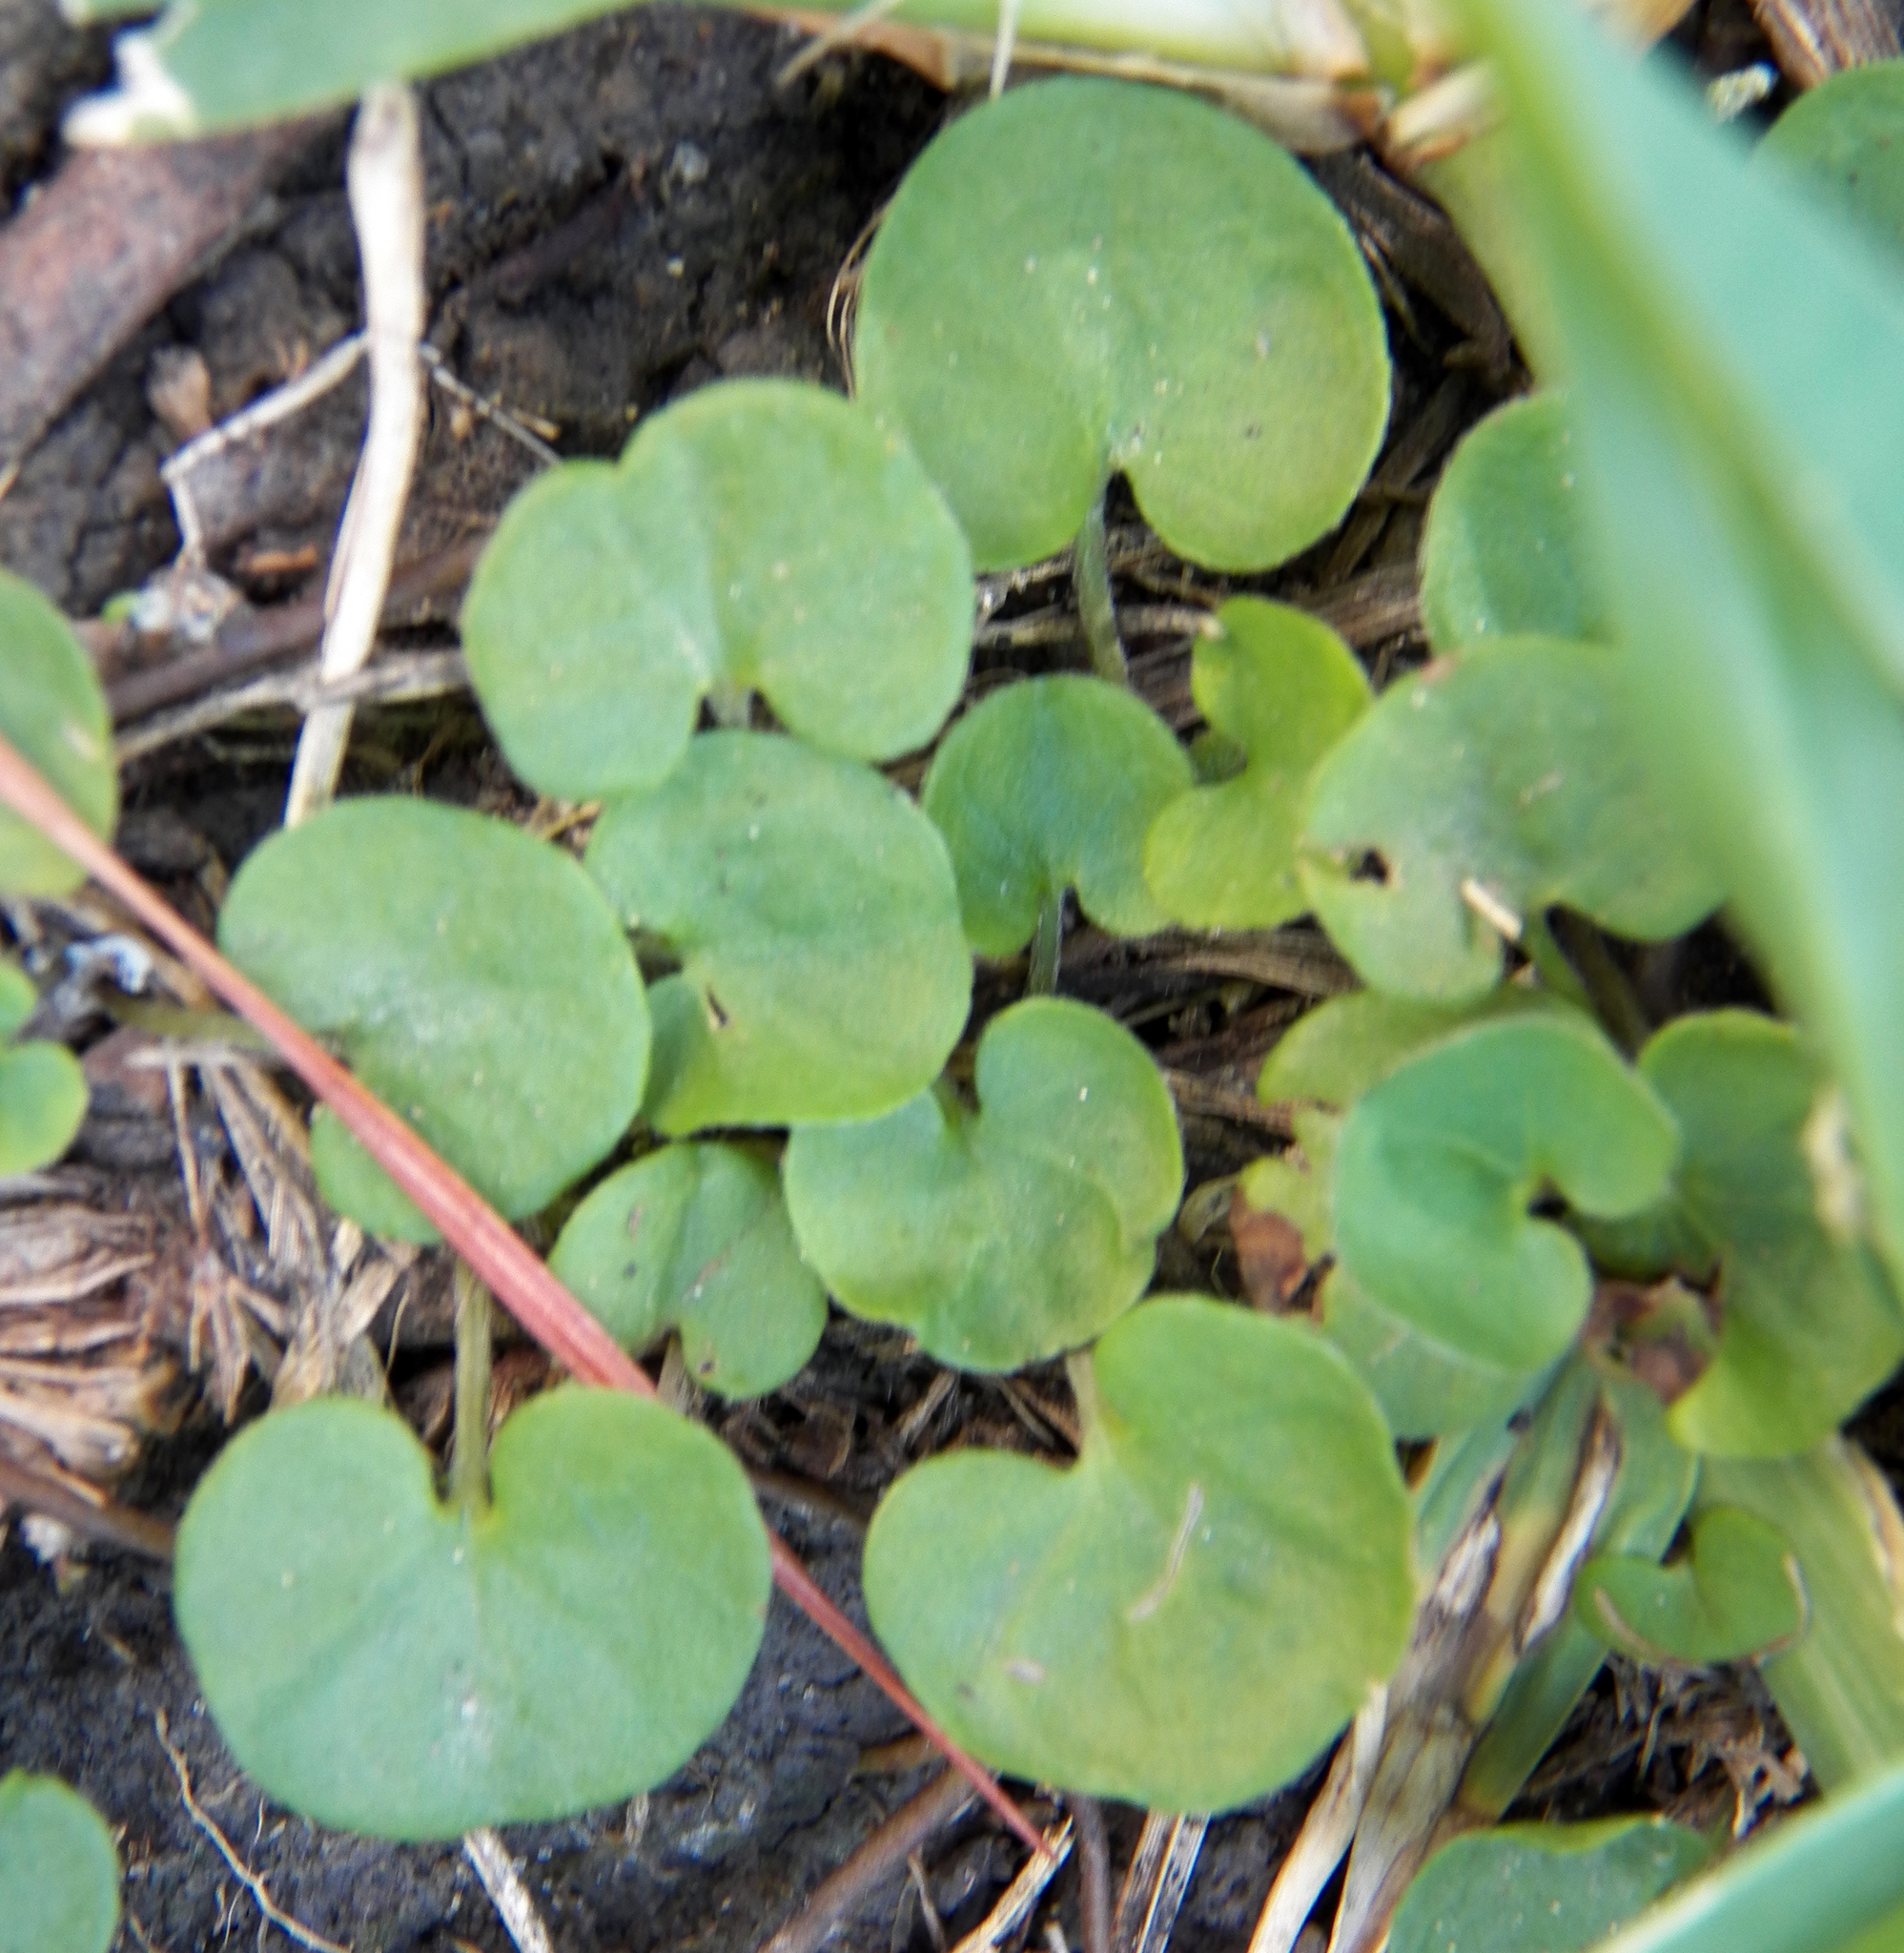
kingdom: Plantae
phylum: Tracheophyta
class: Magnoliopsida
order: Solanales
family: Convolvulaceae
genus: Dichondra
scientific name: Dichondra carolinensis
